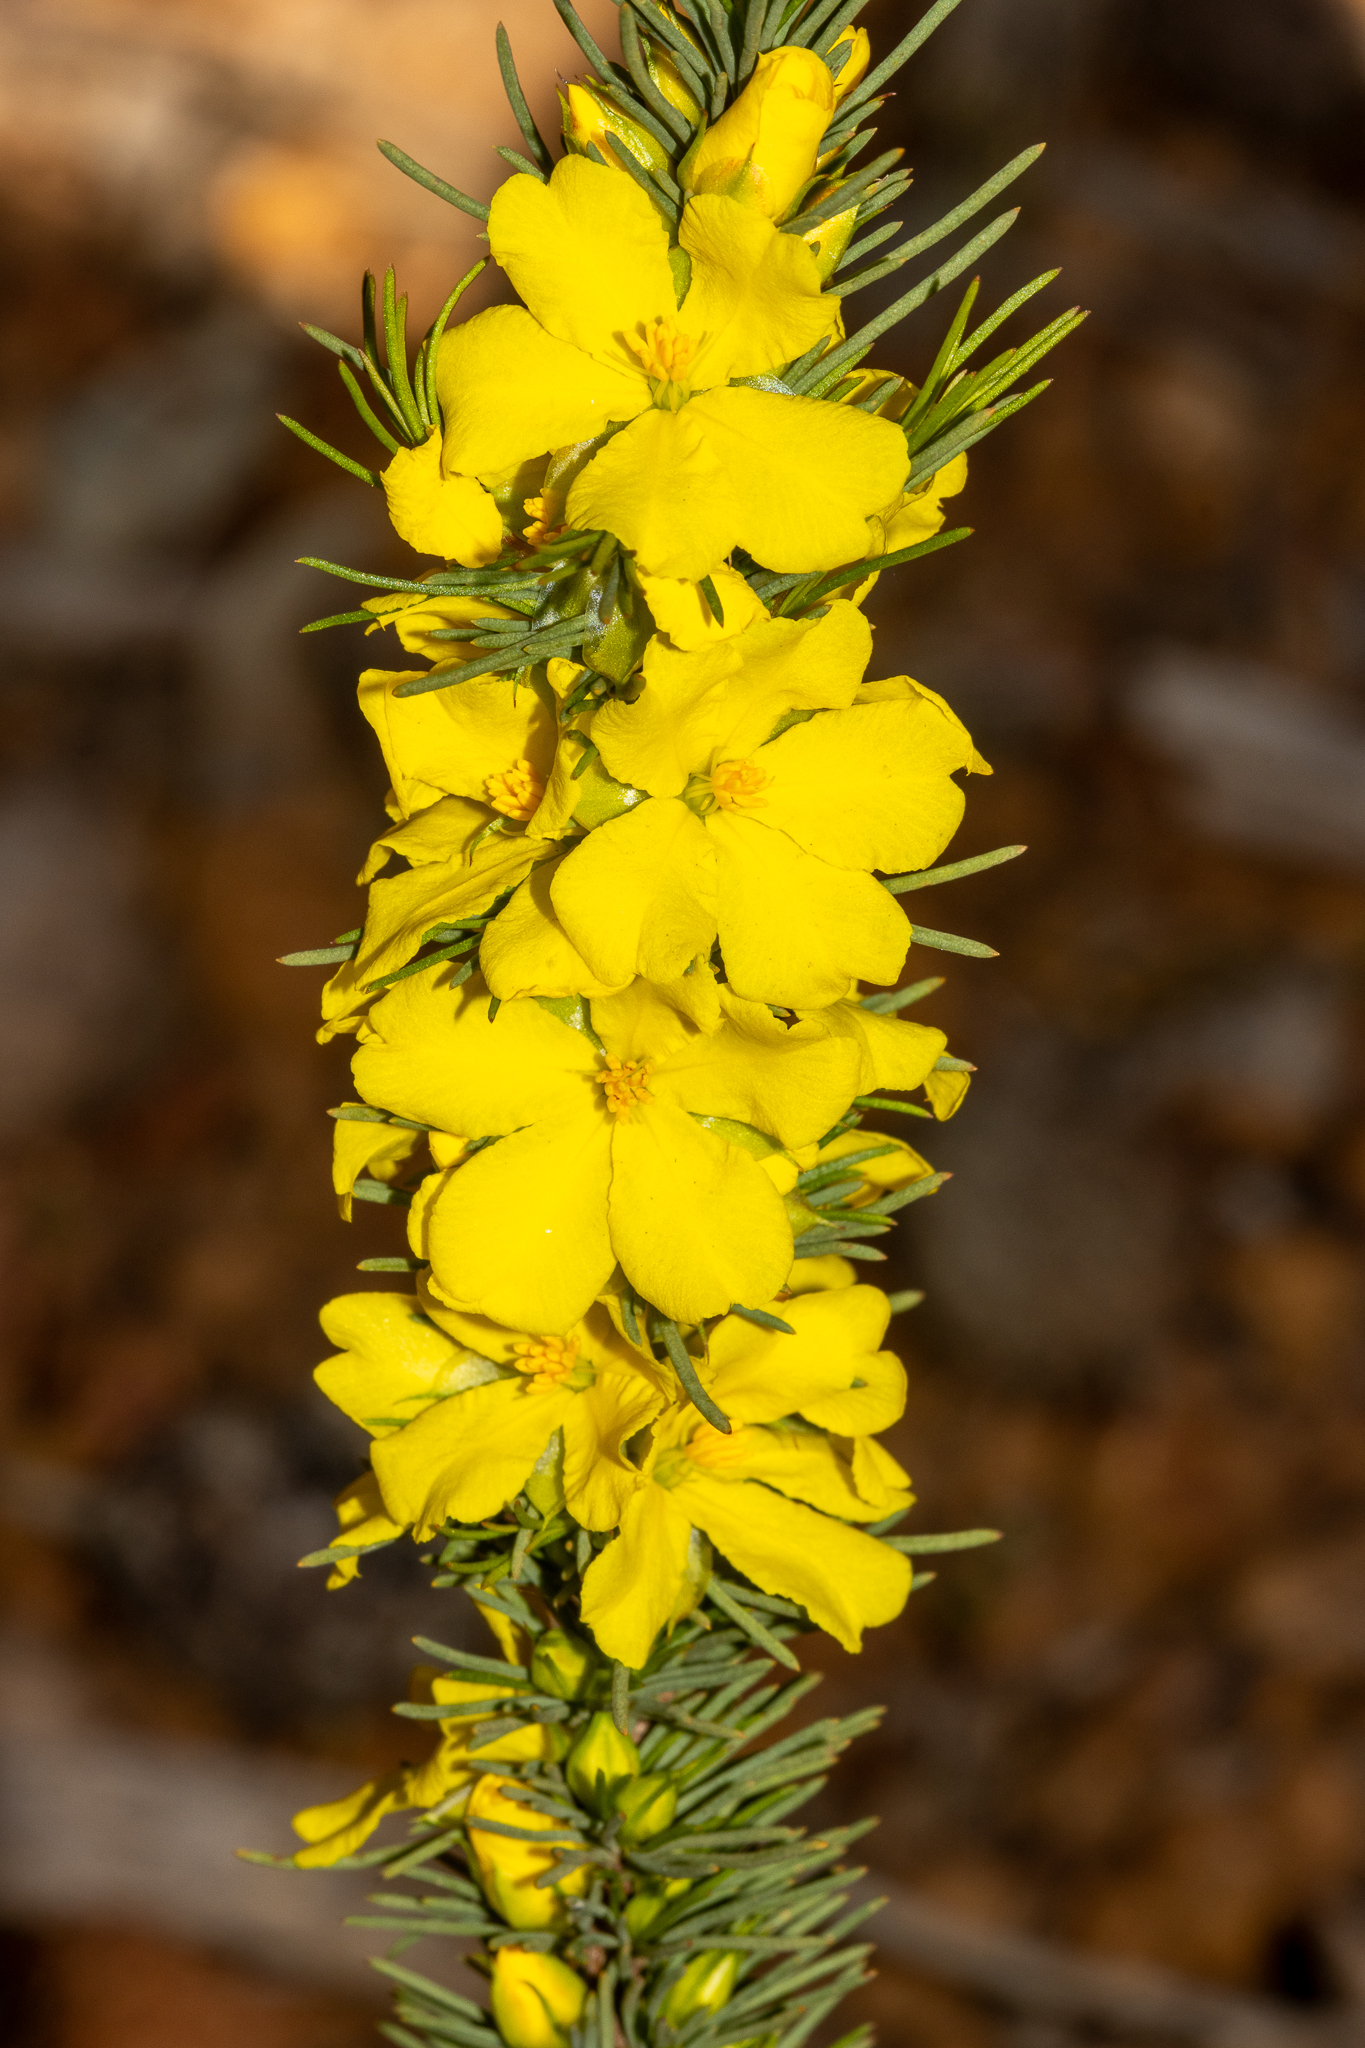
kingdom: Plantae
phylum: Tracheophyta
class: Magnoliopsida
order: Dilleniales
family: Dilleniaceae
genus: Hibbertia
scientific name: Hibbertia hibbertioides
